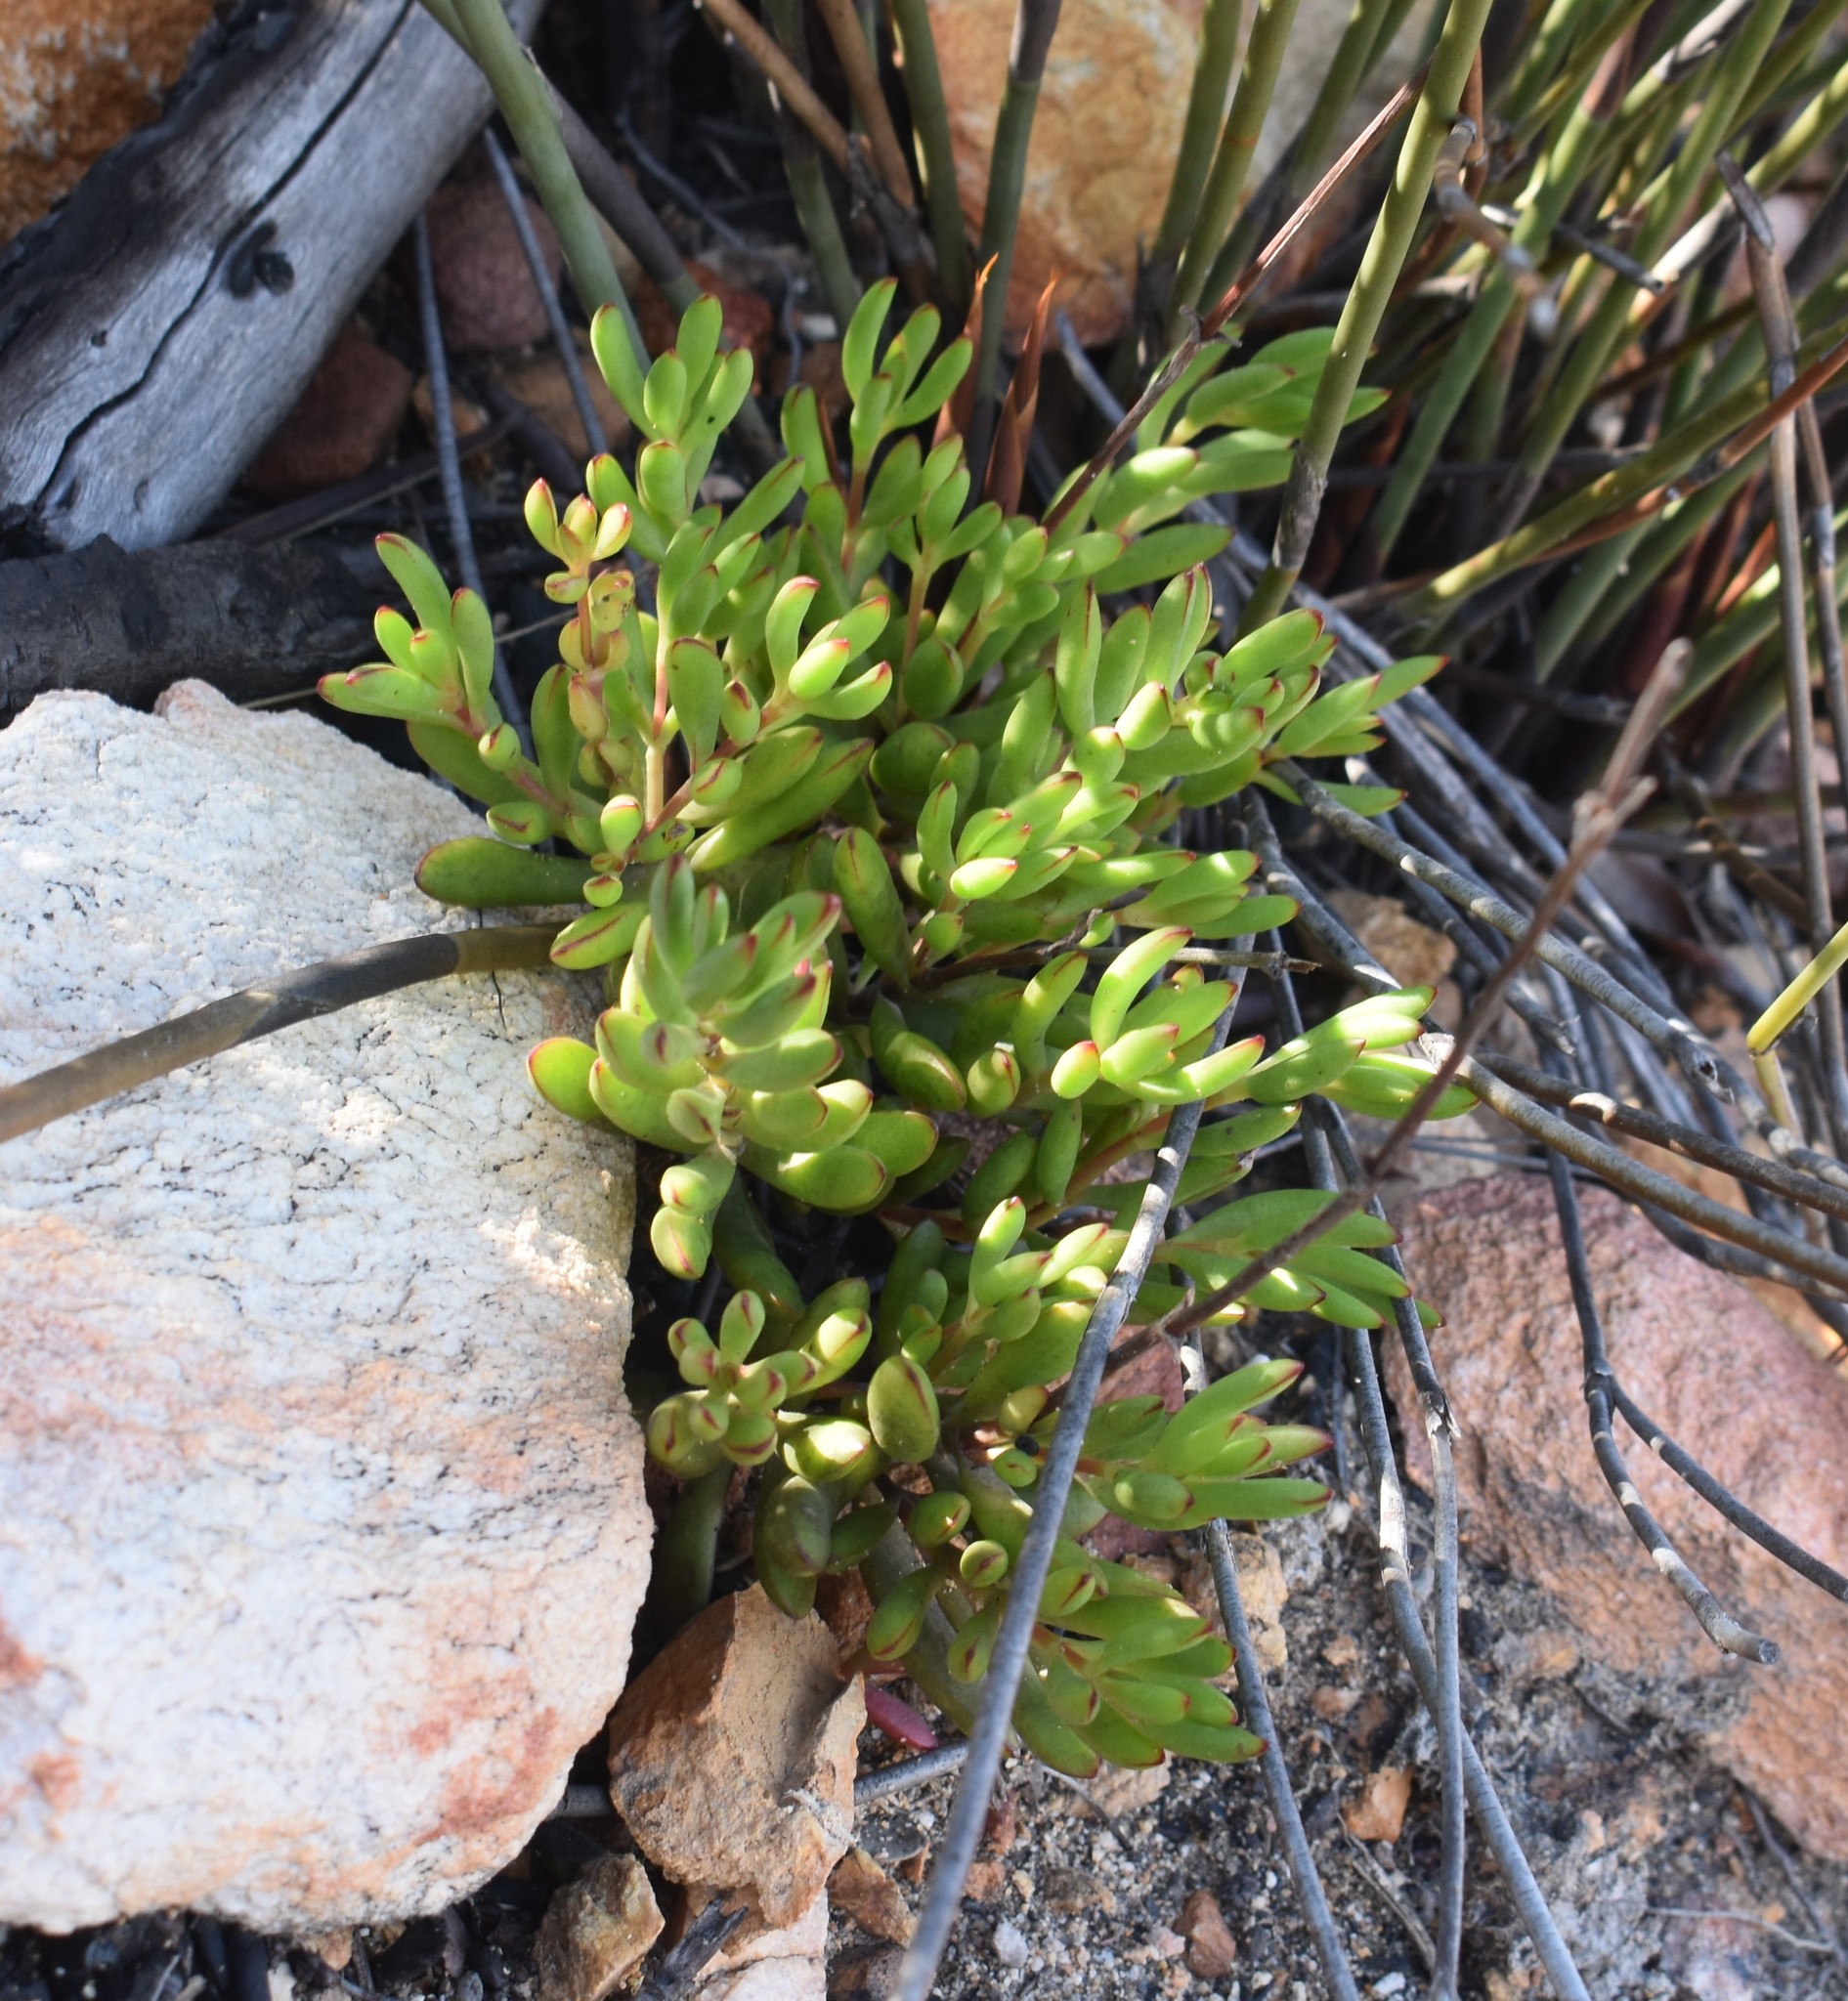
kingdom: Plantae
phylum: Tracheophyta
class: Magnoliopsida
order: Saxifragales
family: Crassulaceae
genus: Crassula
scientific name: Crassula mollis
